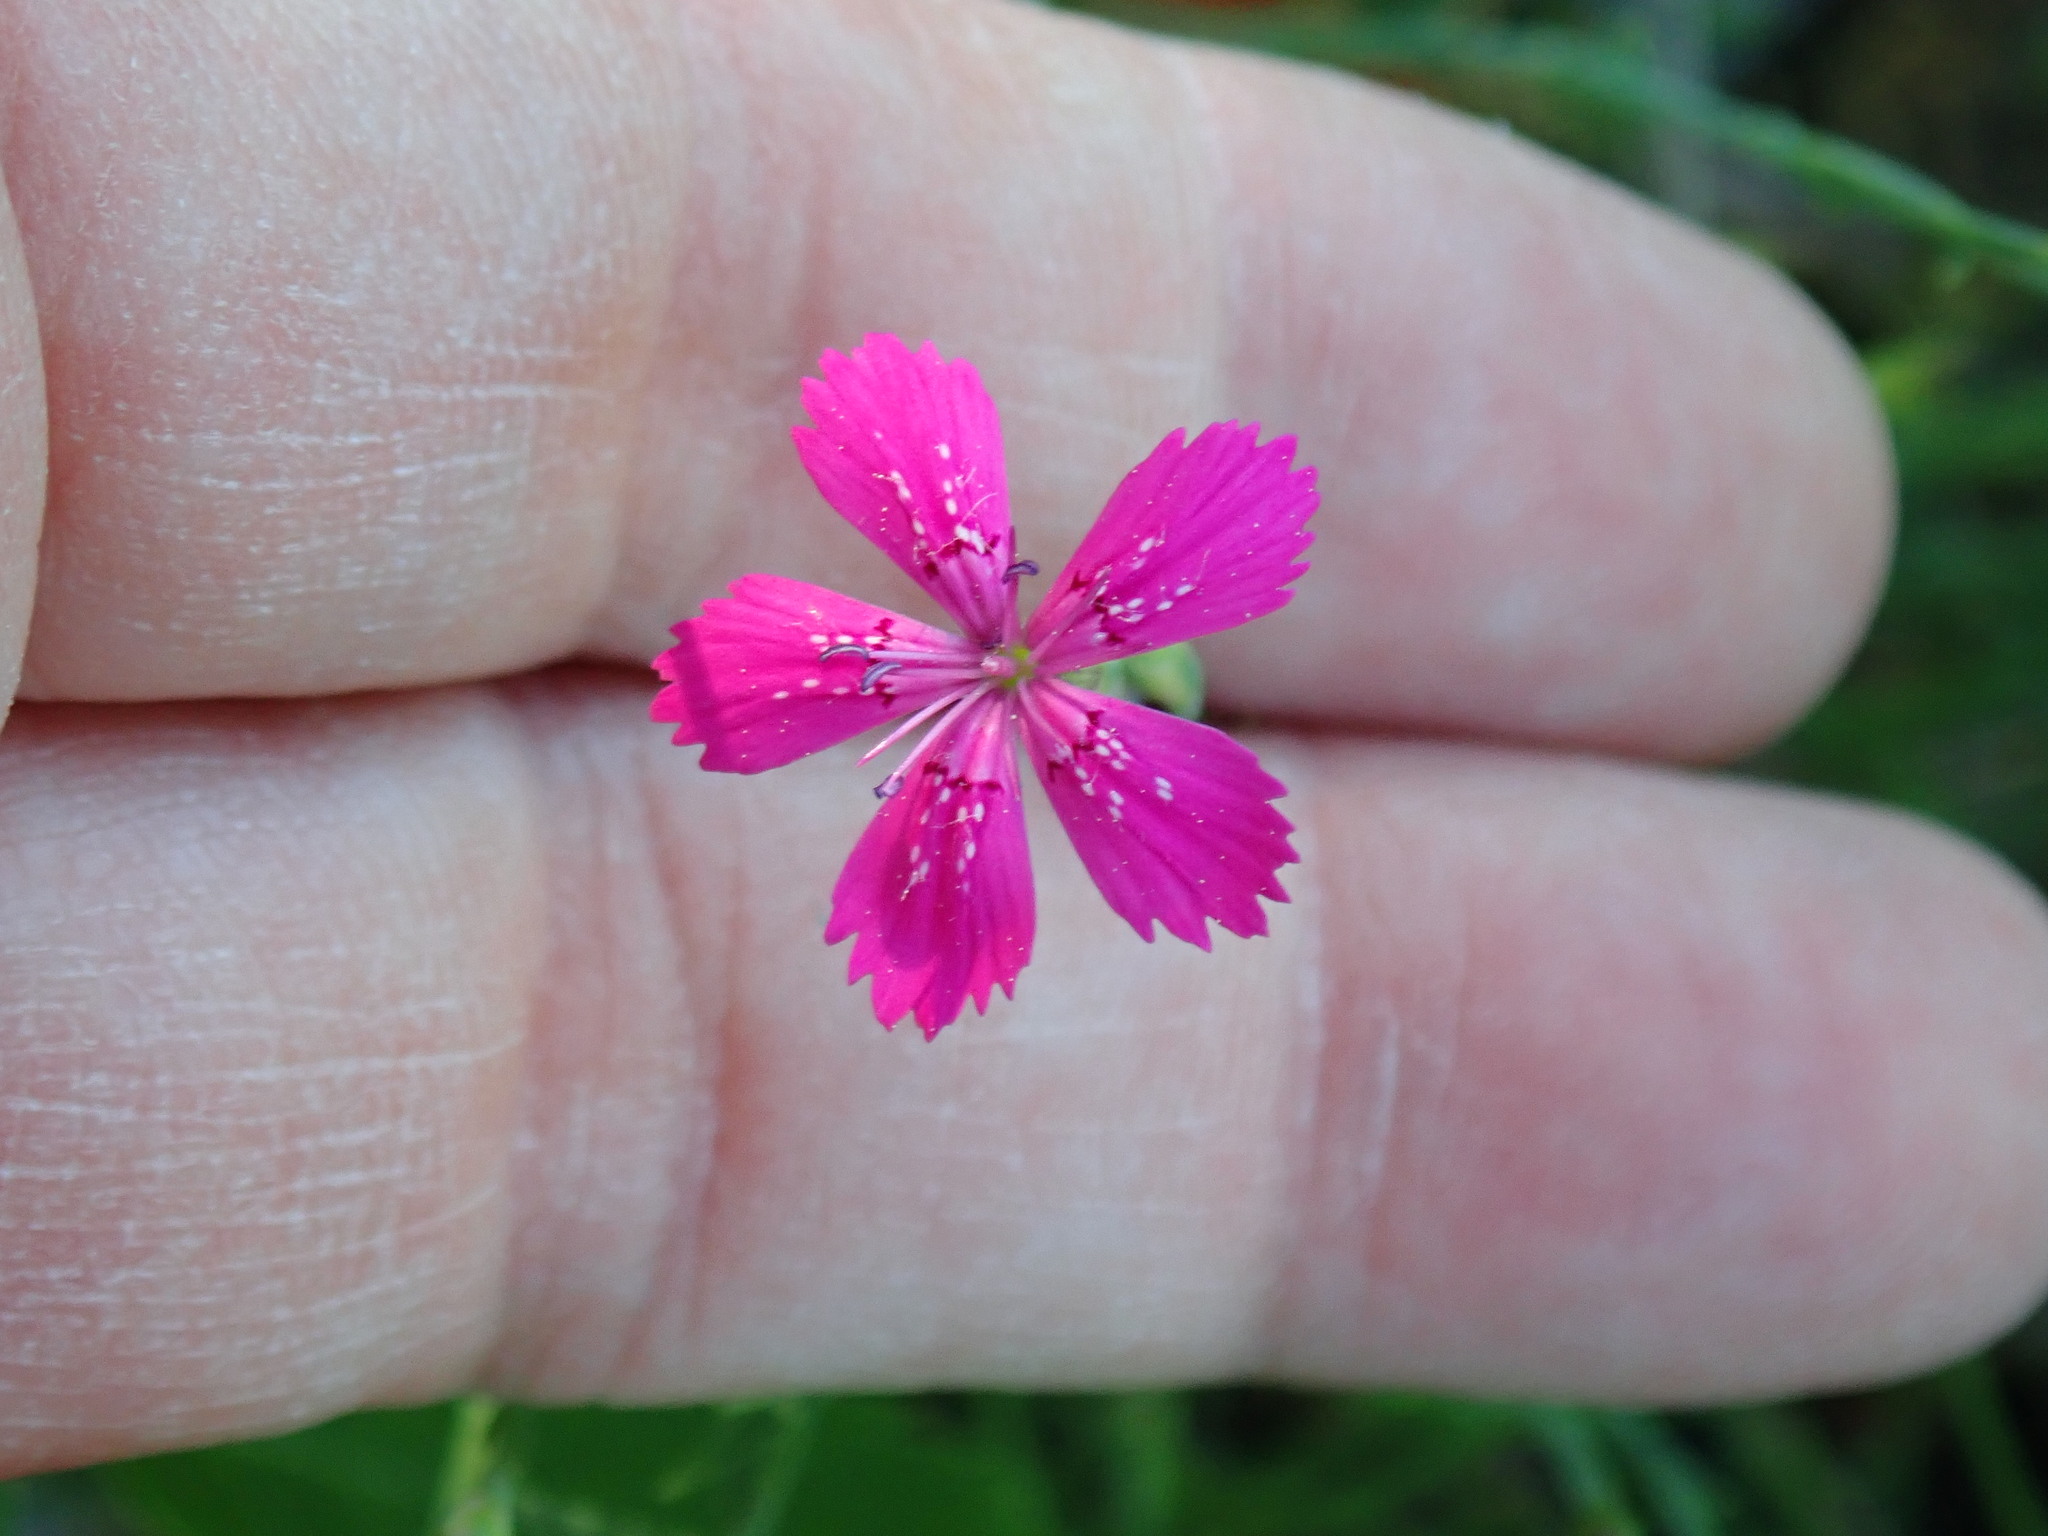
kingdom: Plantae
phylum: Tracheophyta
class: Magnoliopsida
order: Caryophyllales
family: Caryophyllaceae
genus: Dianthus
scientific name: Dianthus deltoides
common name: Maiden pink
